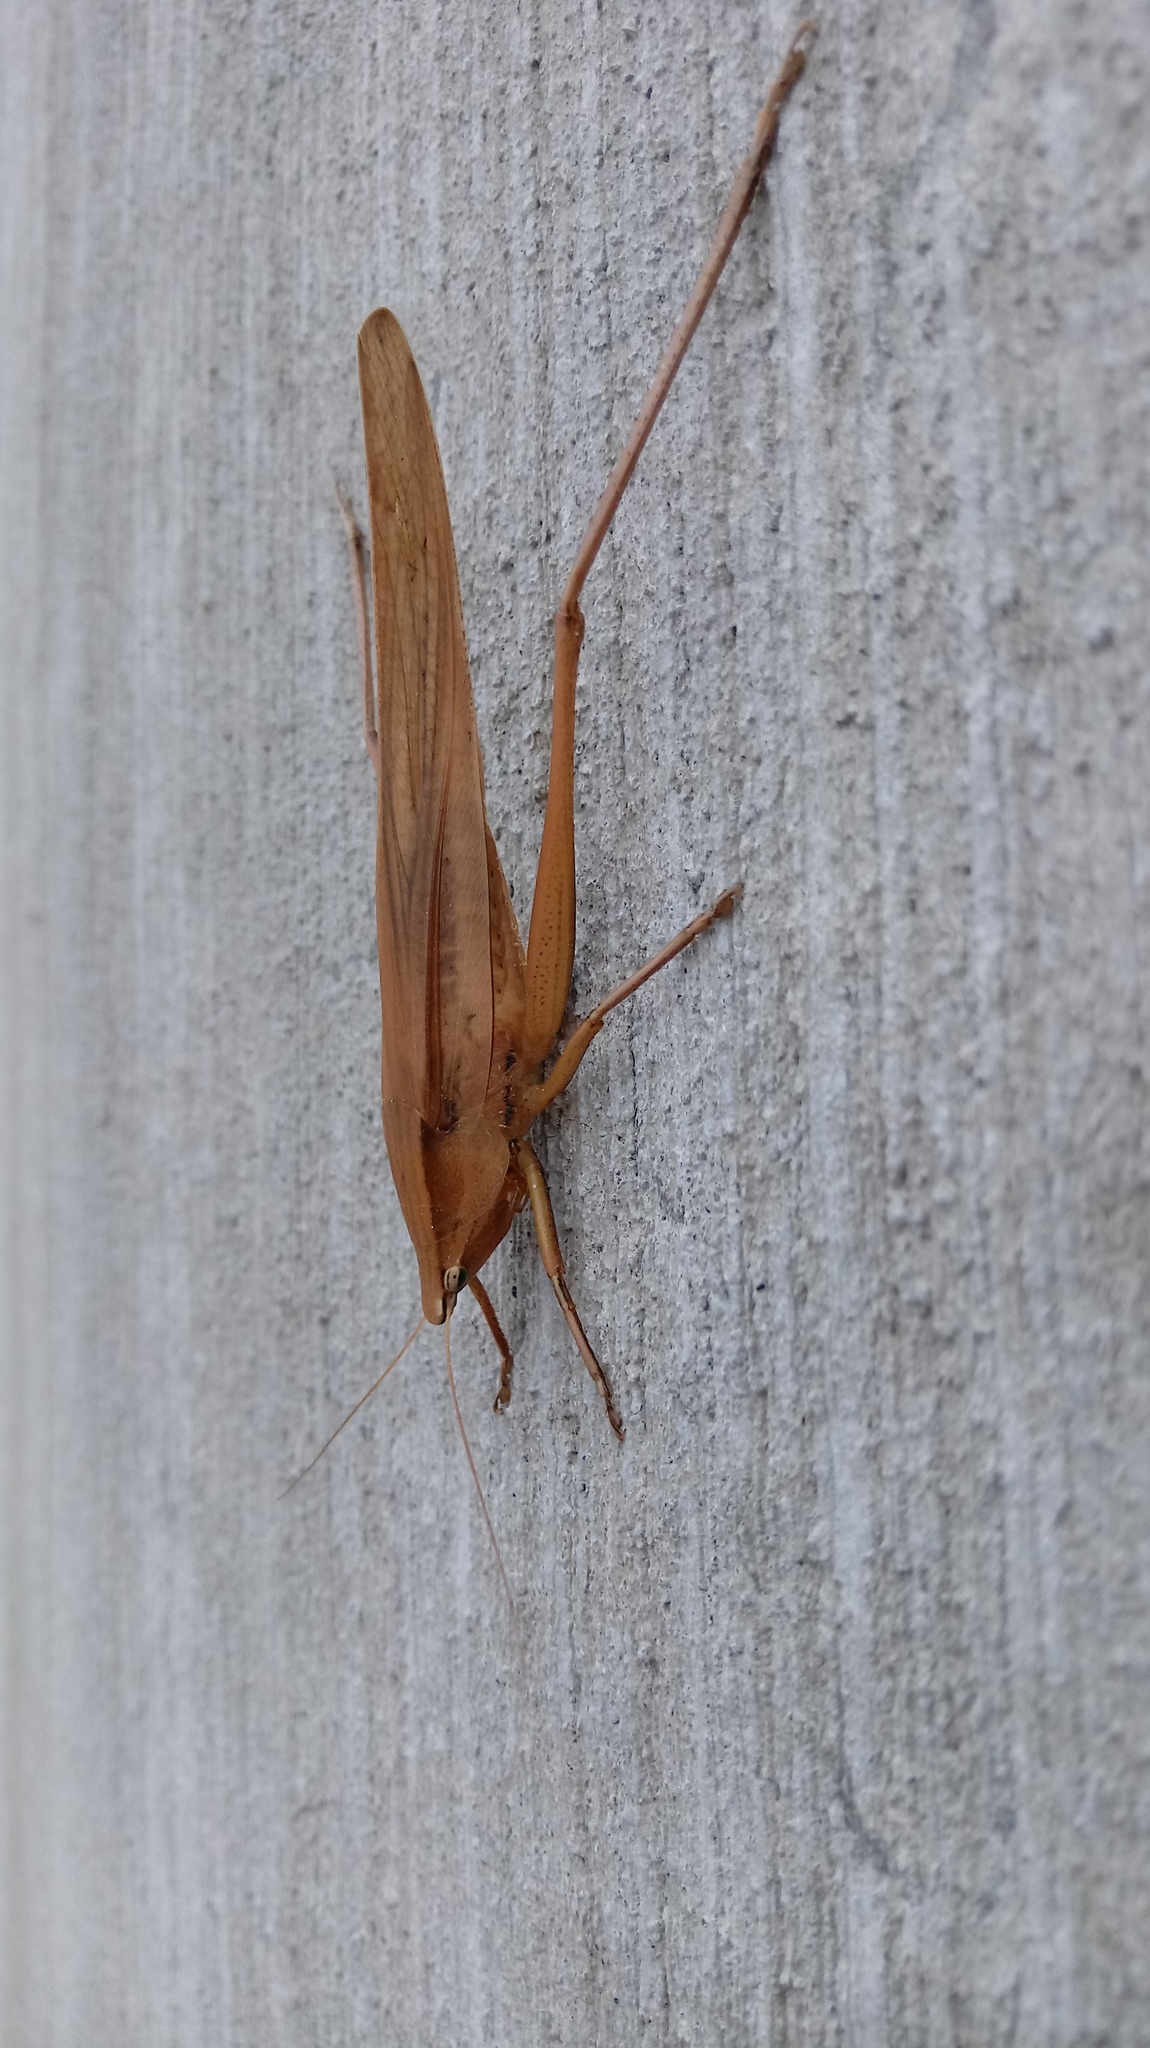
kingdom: Animalia
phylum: Arthropoda
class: Insecta
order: Orthoptera
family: Tettigoniidae
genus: Neoconocephalus
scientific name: Neoconocephalus triops
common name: Broad-tipped conehead
